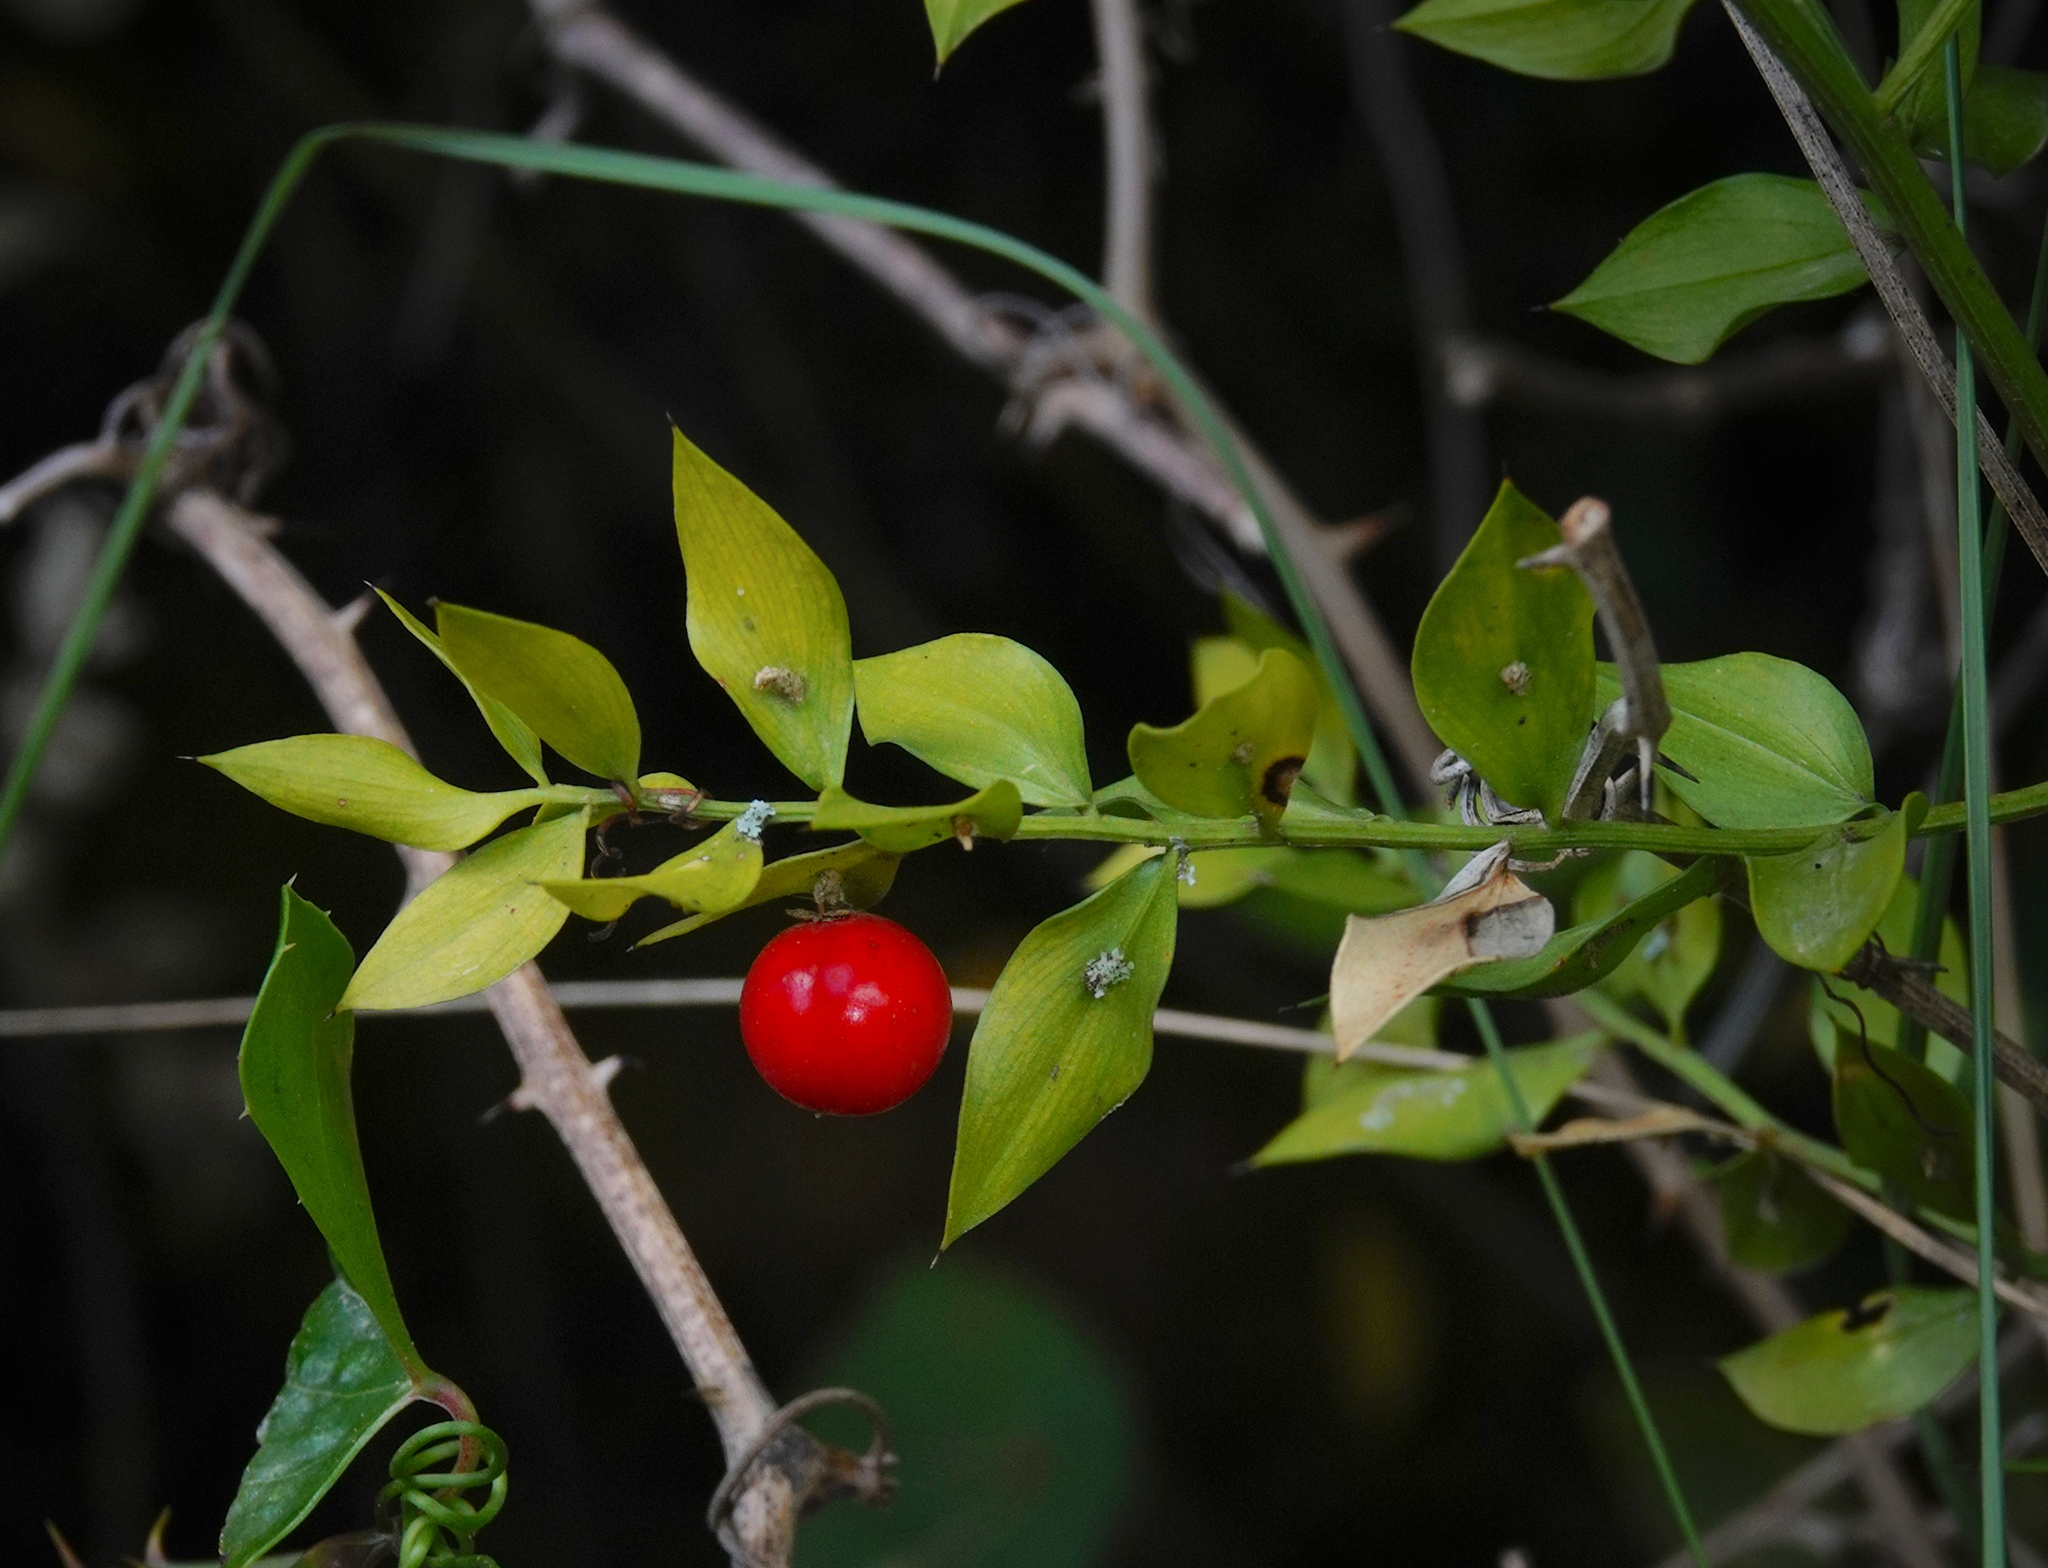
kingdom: Plantae
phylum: Tracheophyta
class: Liliopsida
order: Asparagales
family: Asparagaceae
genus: Ruscus
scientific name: Ruscus aculeatus
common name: Butcher's-broom
